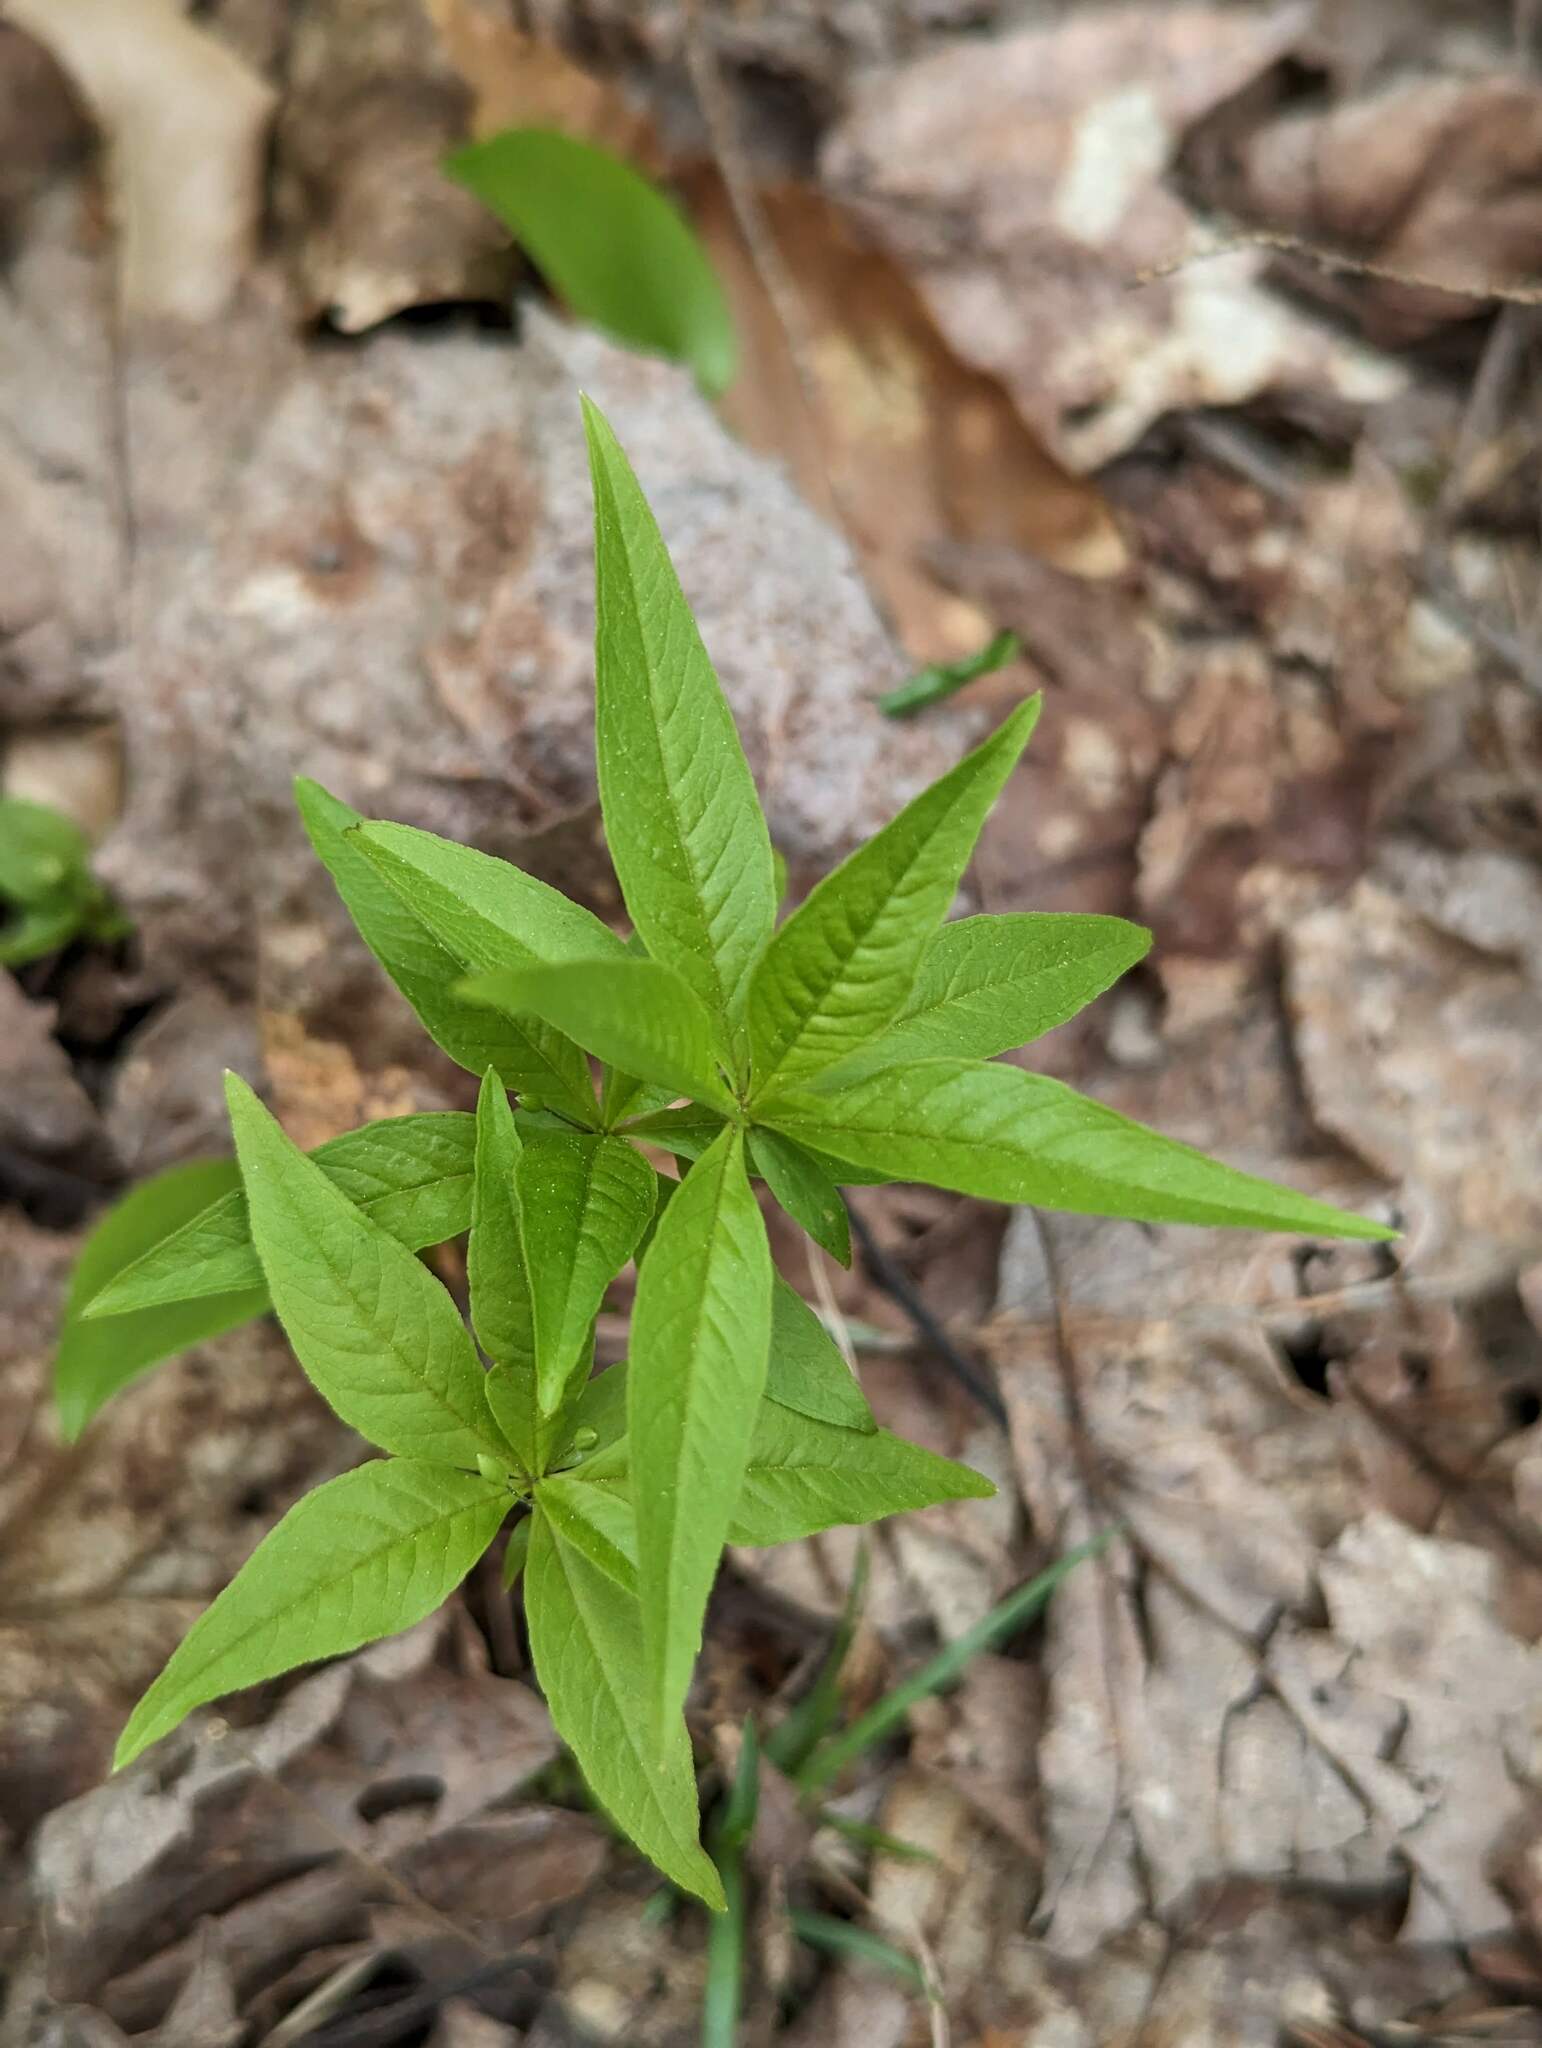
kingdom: Plantae
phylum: Tracheophyta
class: Magnoliopsida
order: Ericales
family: Primulaceae
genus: Lysimachia
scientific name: Lysimachia borealis
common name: American starflower
